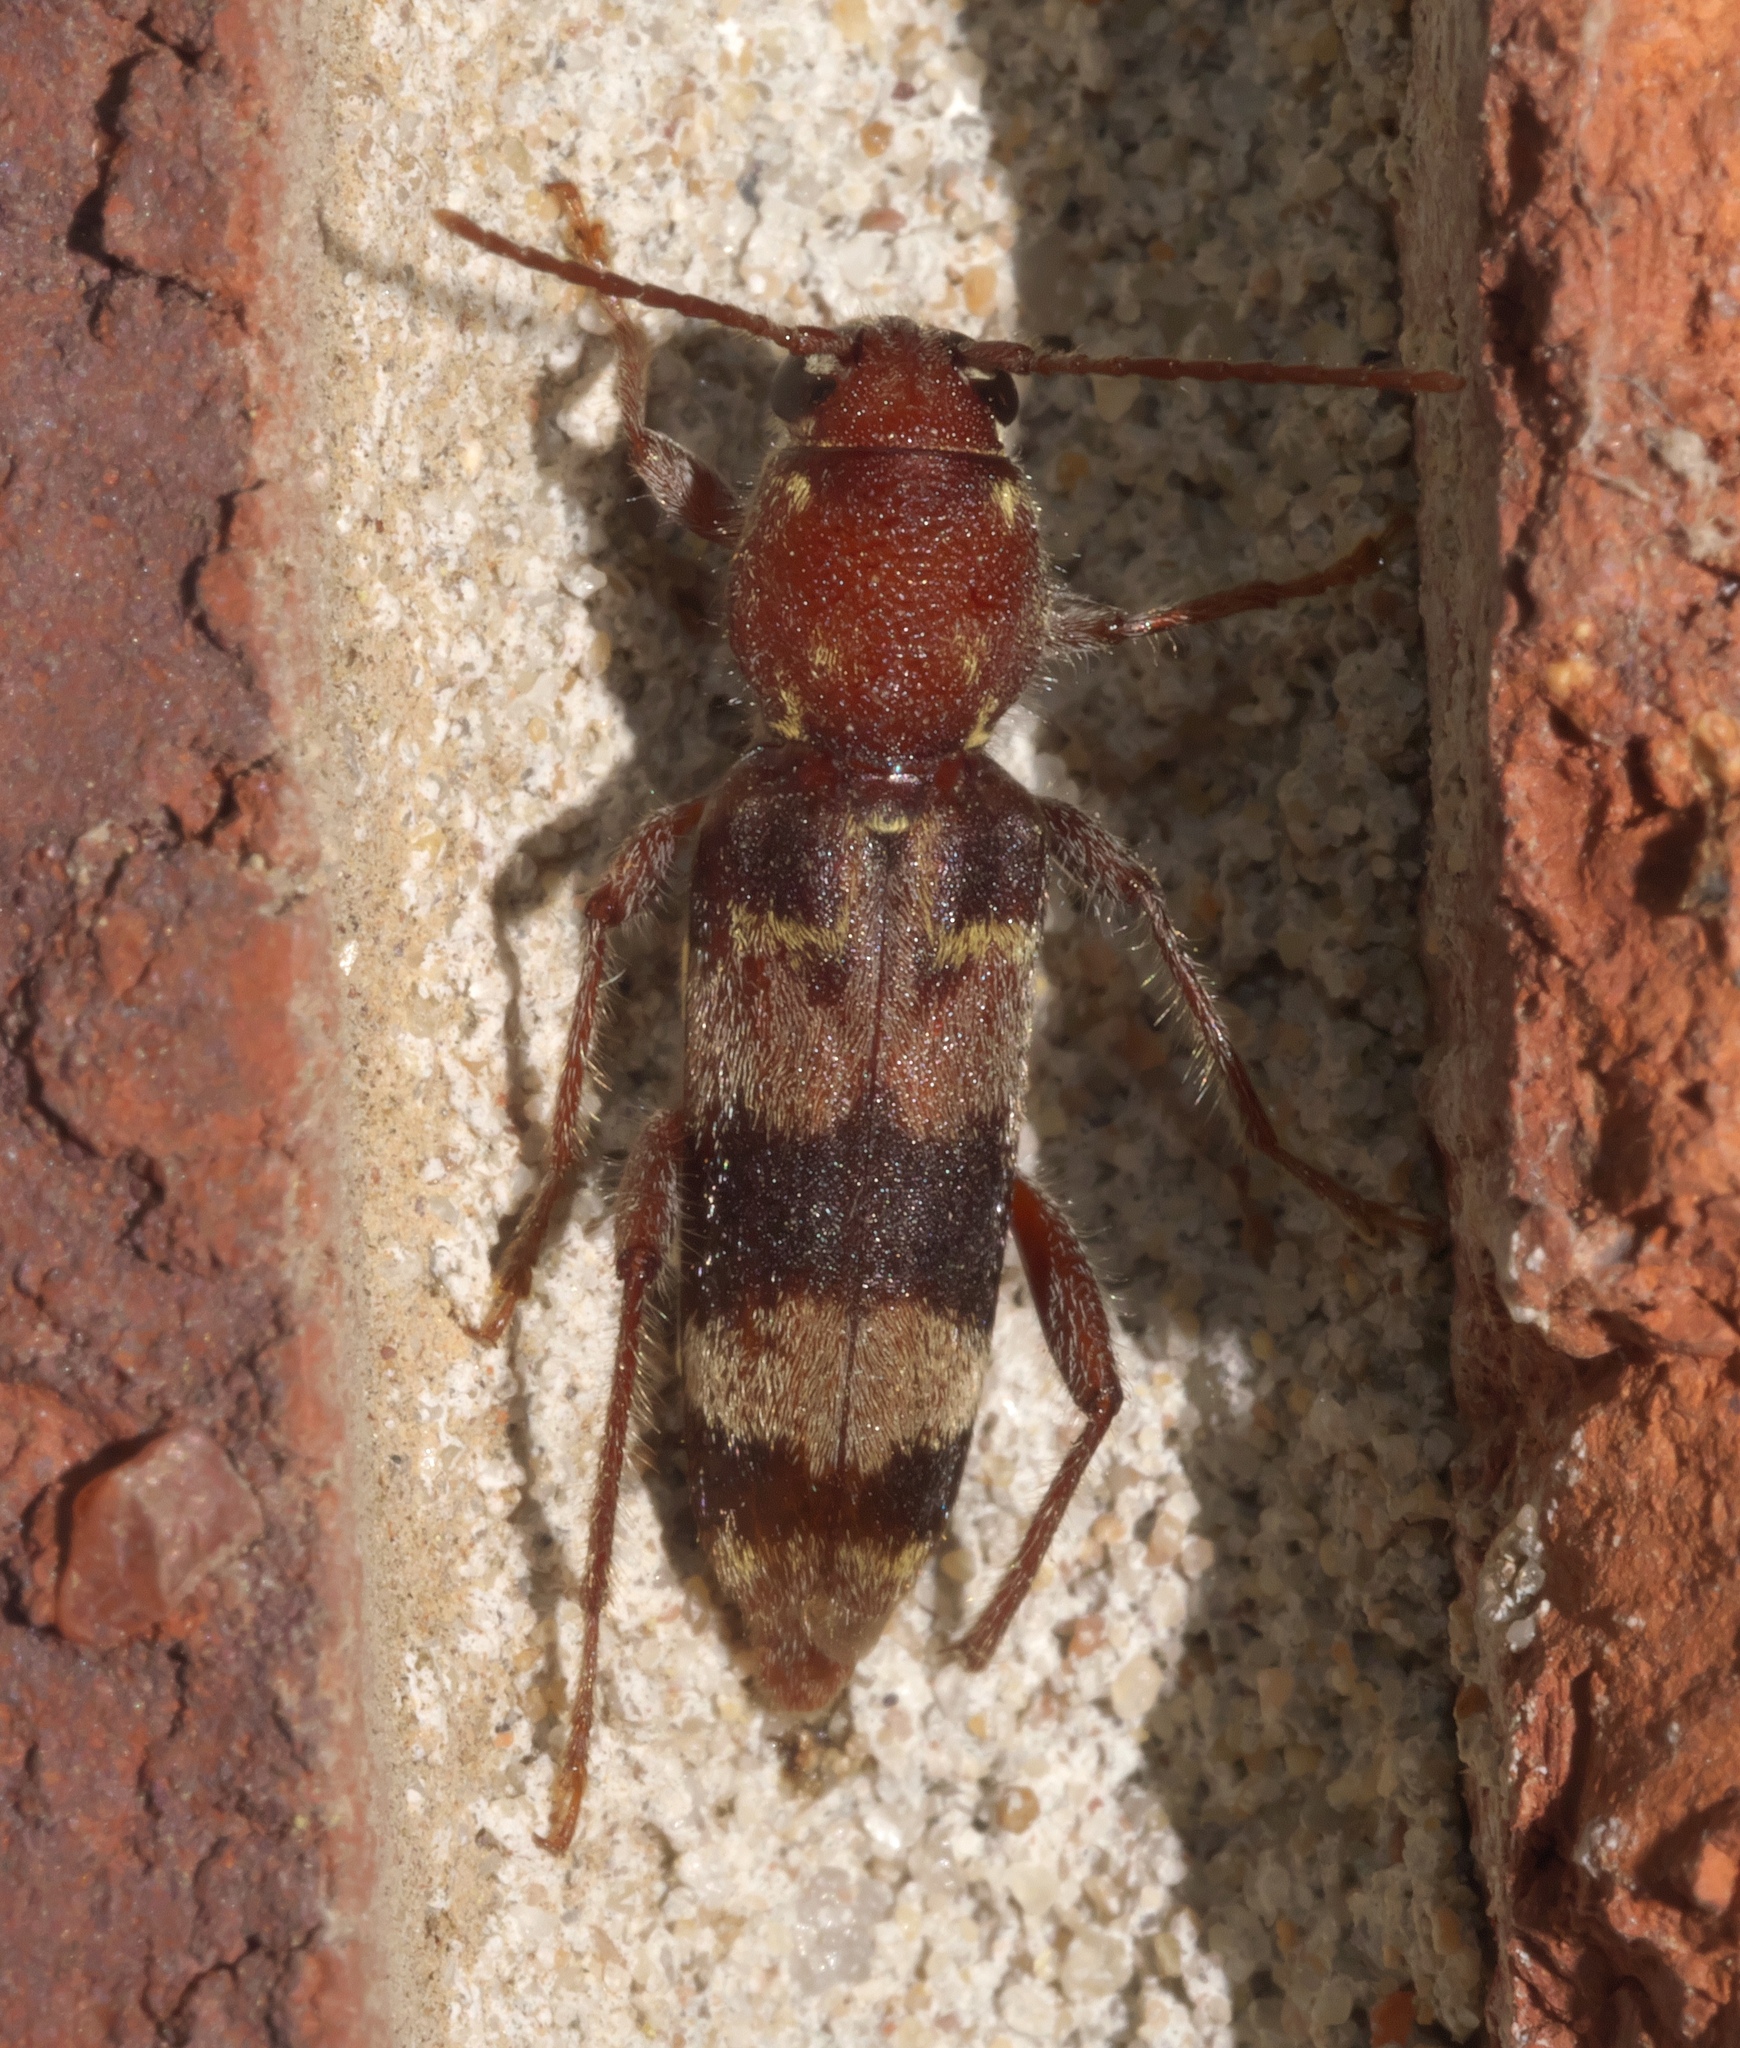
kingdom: Animalia
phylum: Arthropoda
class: Insecta
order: Coleoptera
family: Cerambycidae
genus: Xylotrechus
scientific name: Xylotrechus colonus
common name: Long-horned beetle
